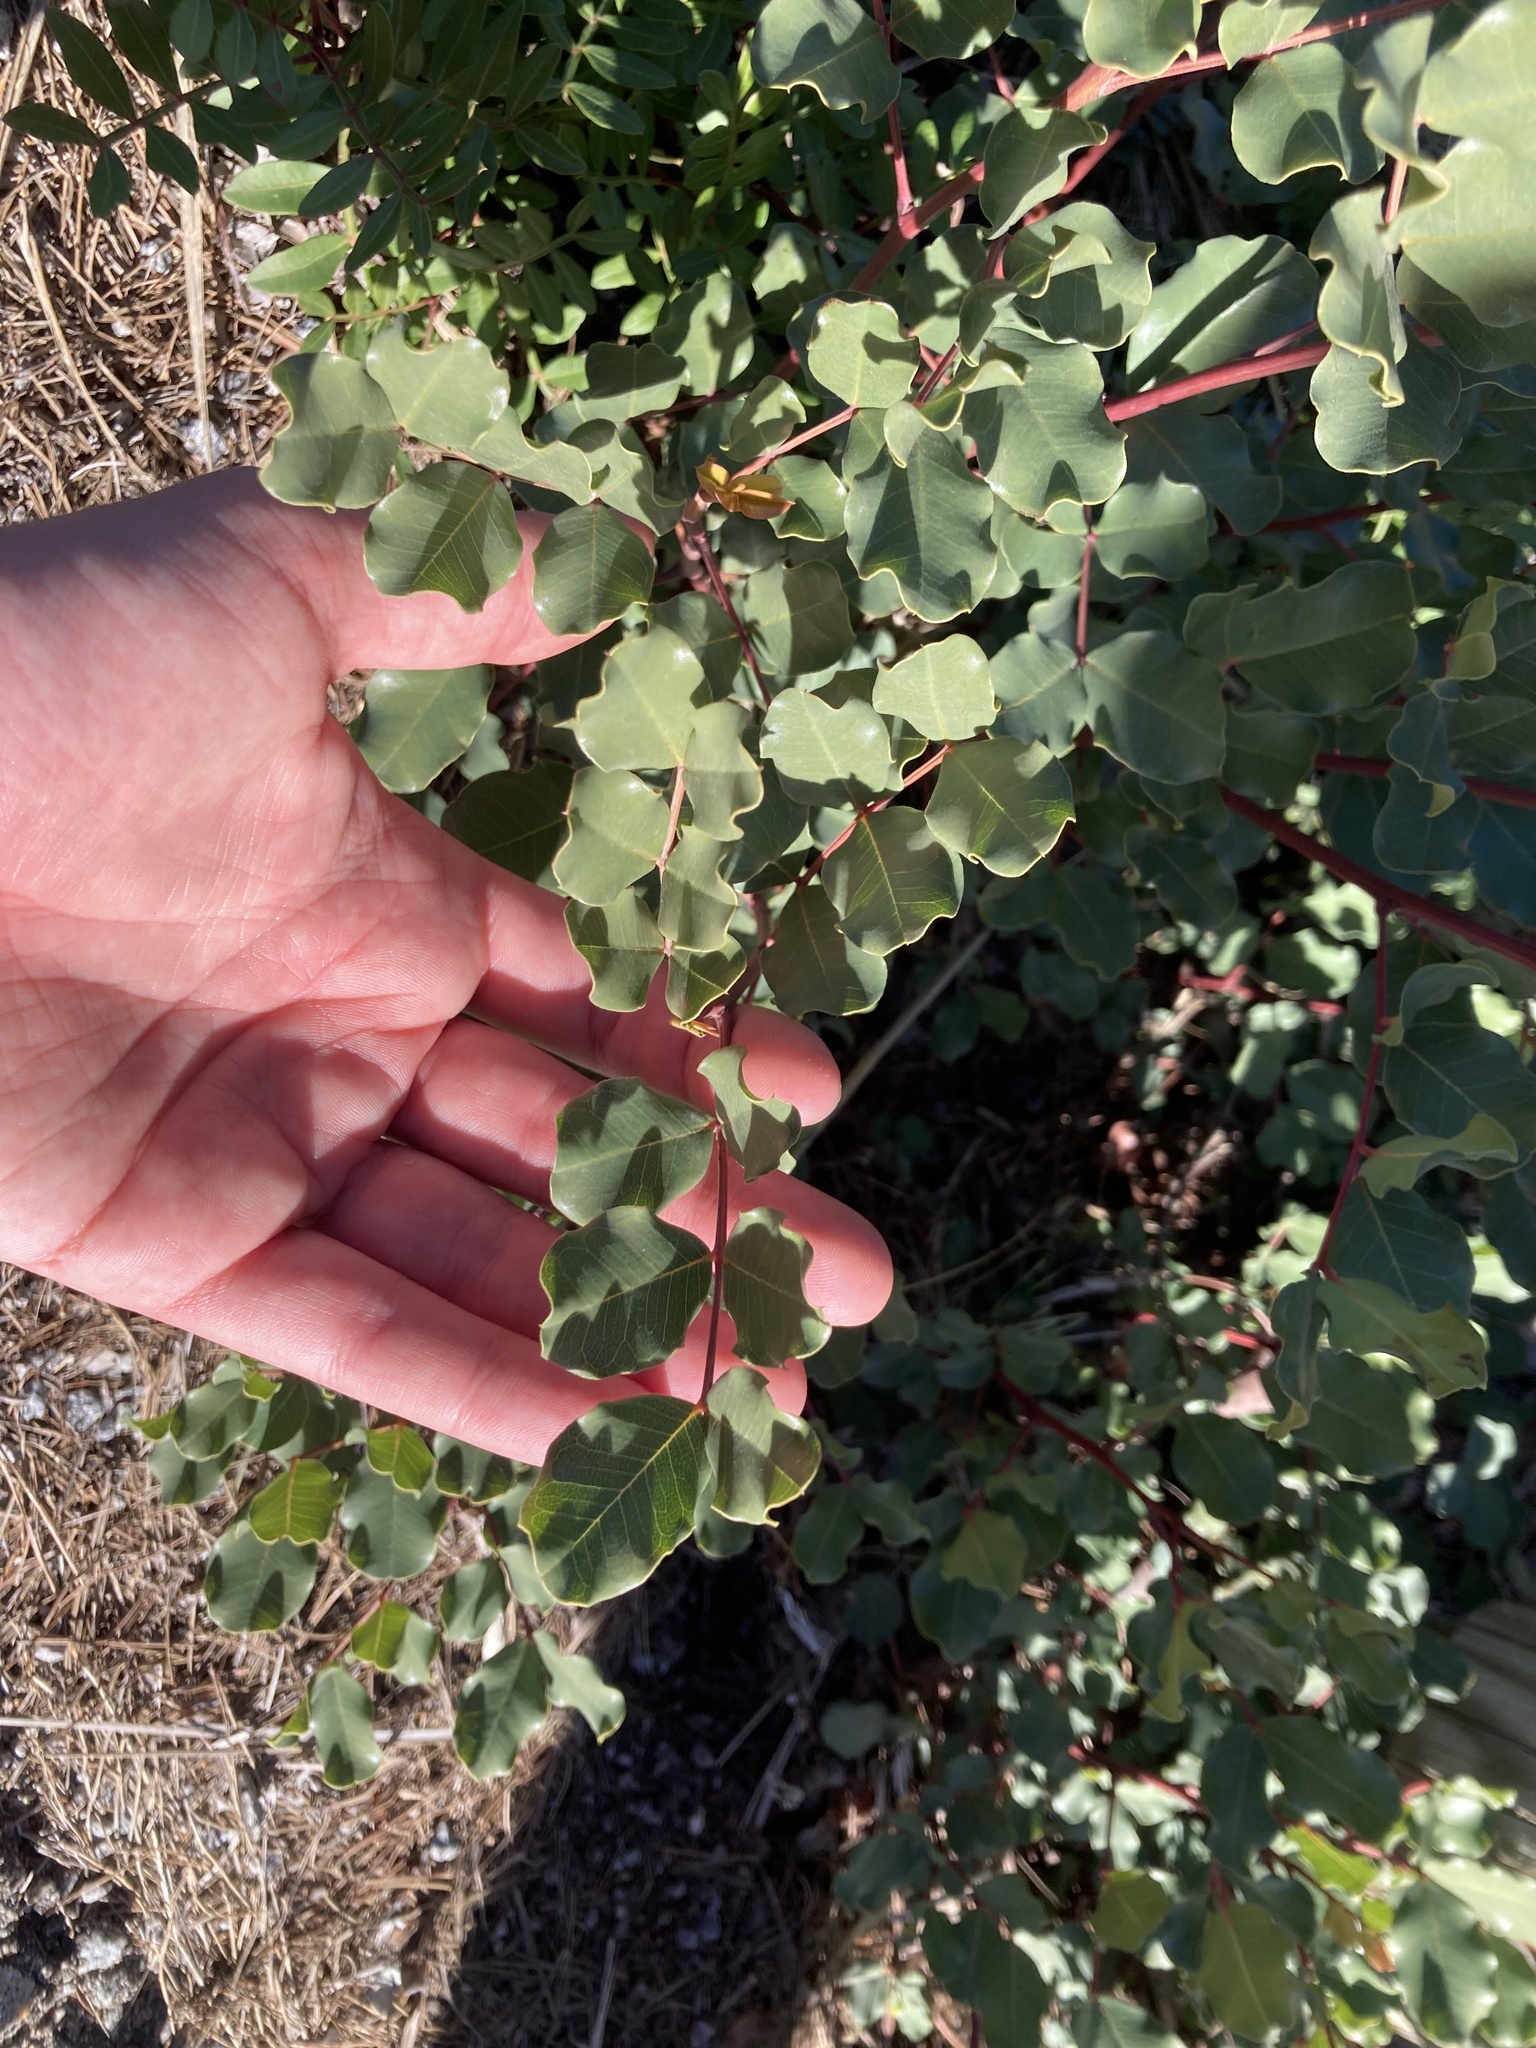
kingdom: Plantae
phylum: Tracheophyta
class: Magnoliopsida
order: Fabales
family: Fabaceae
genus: Ceratonia
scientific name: Ceratonia siliqua
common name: Carob
